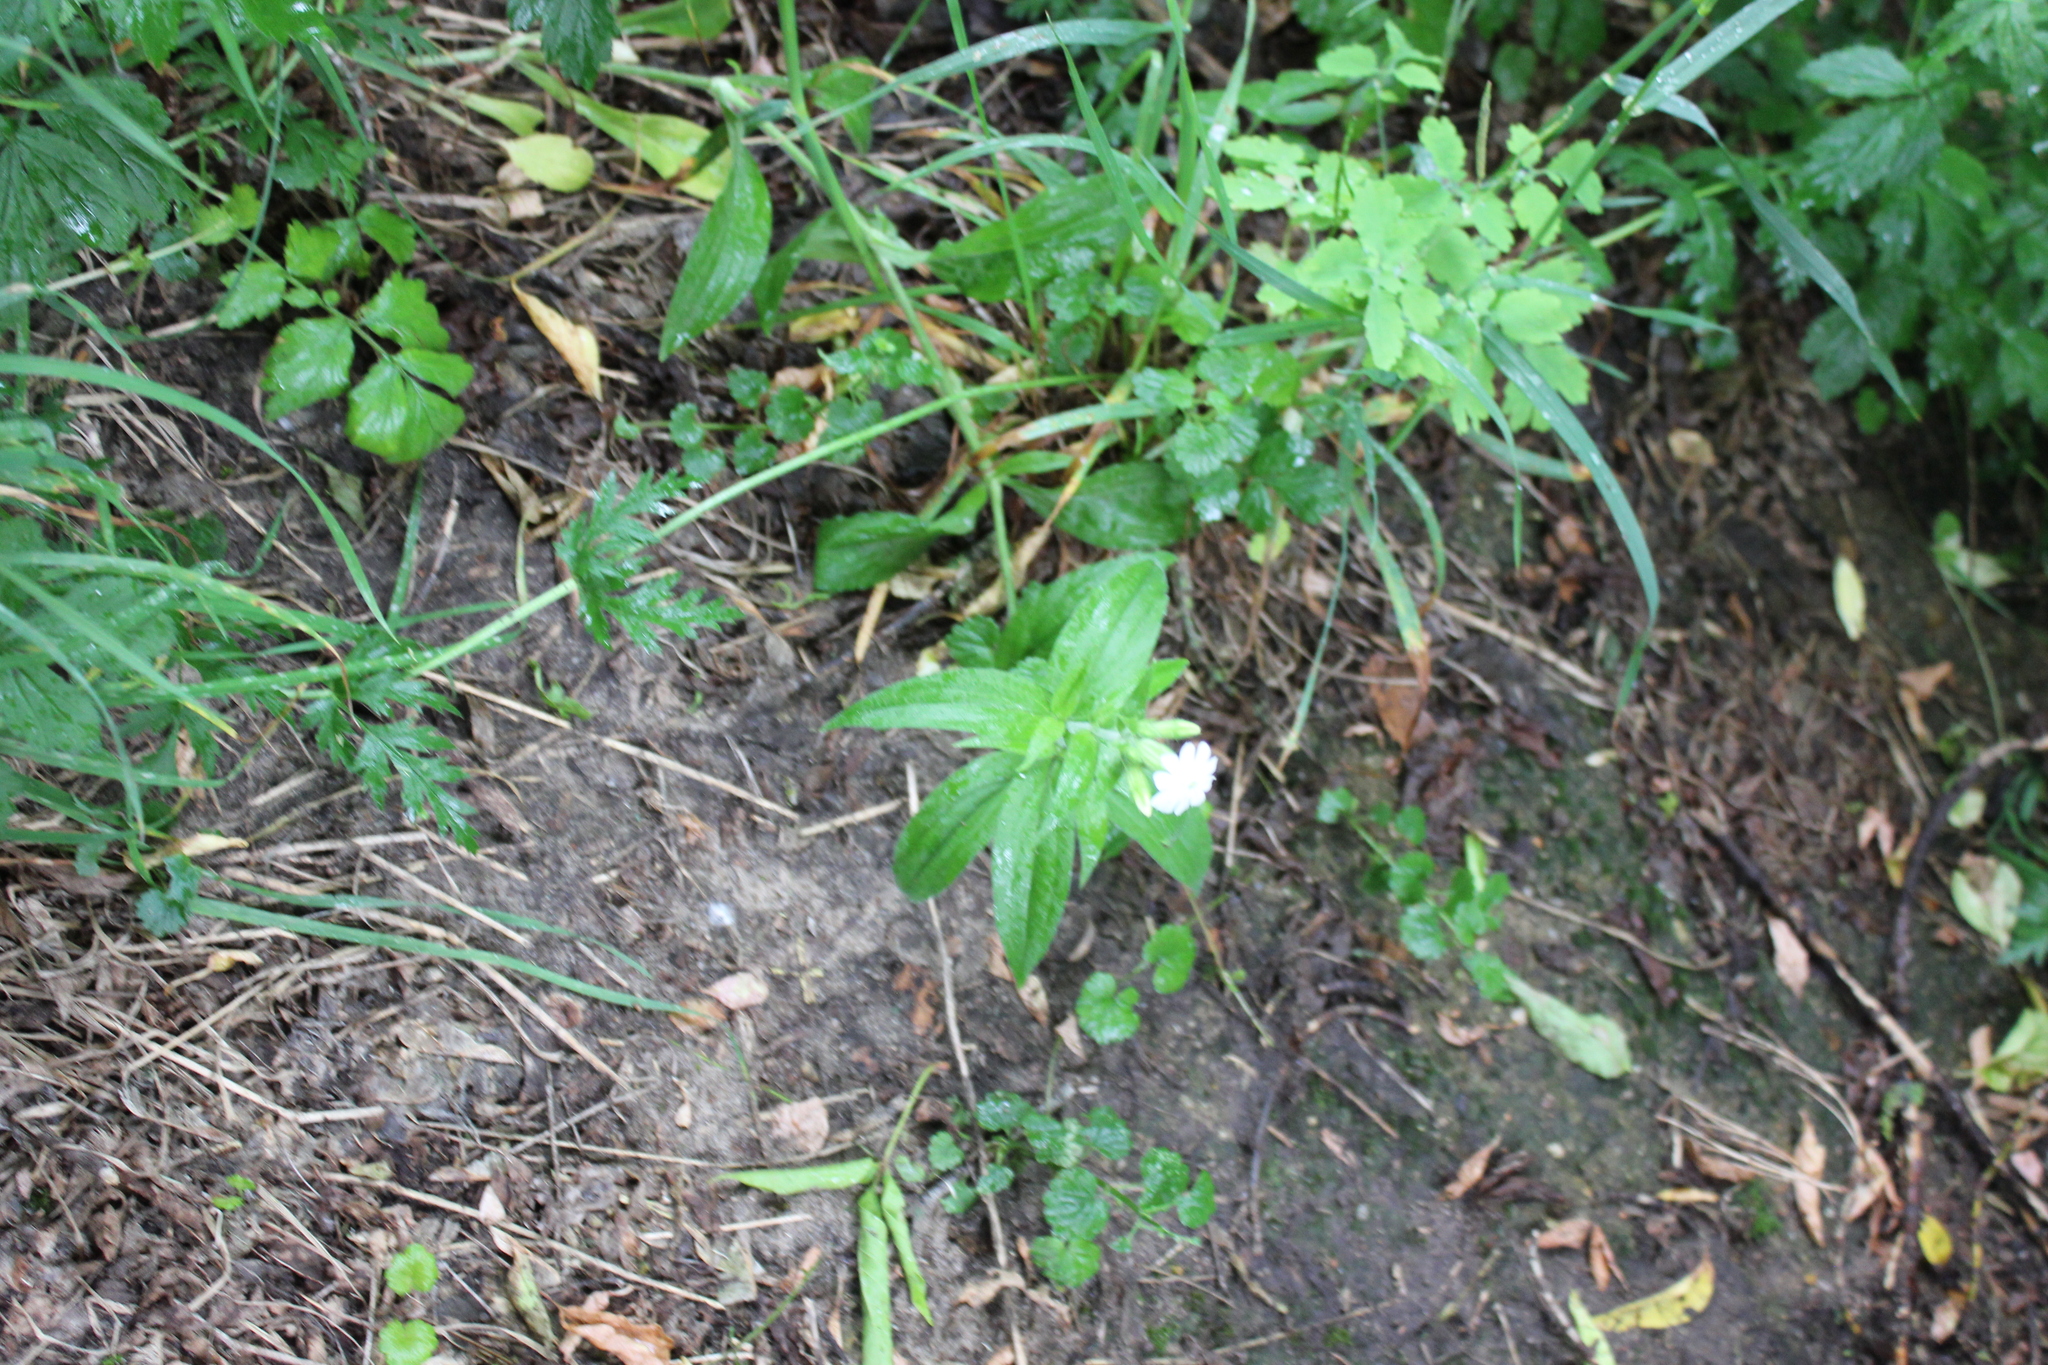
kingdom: Plantae
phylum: Tracheophyta
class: Magnoliopsida
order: Caryophyllales
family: Caryophyllaceae
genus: Silene
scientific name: Silene latifolia
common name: White campion
